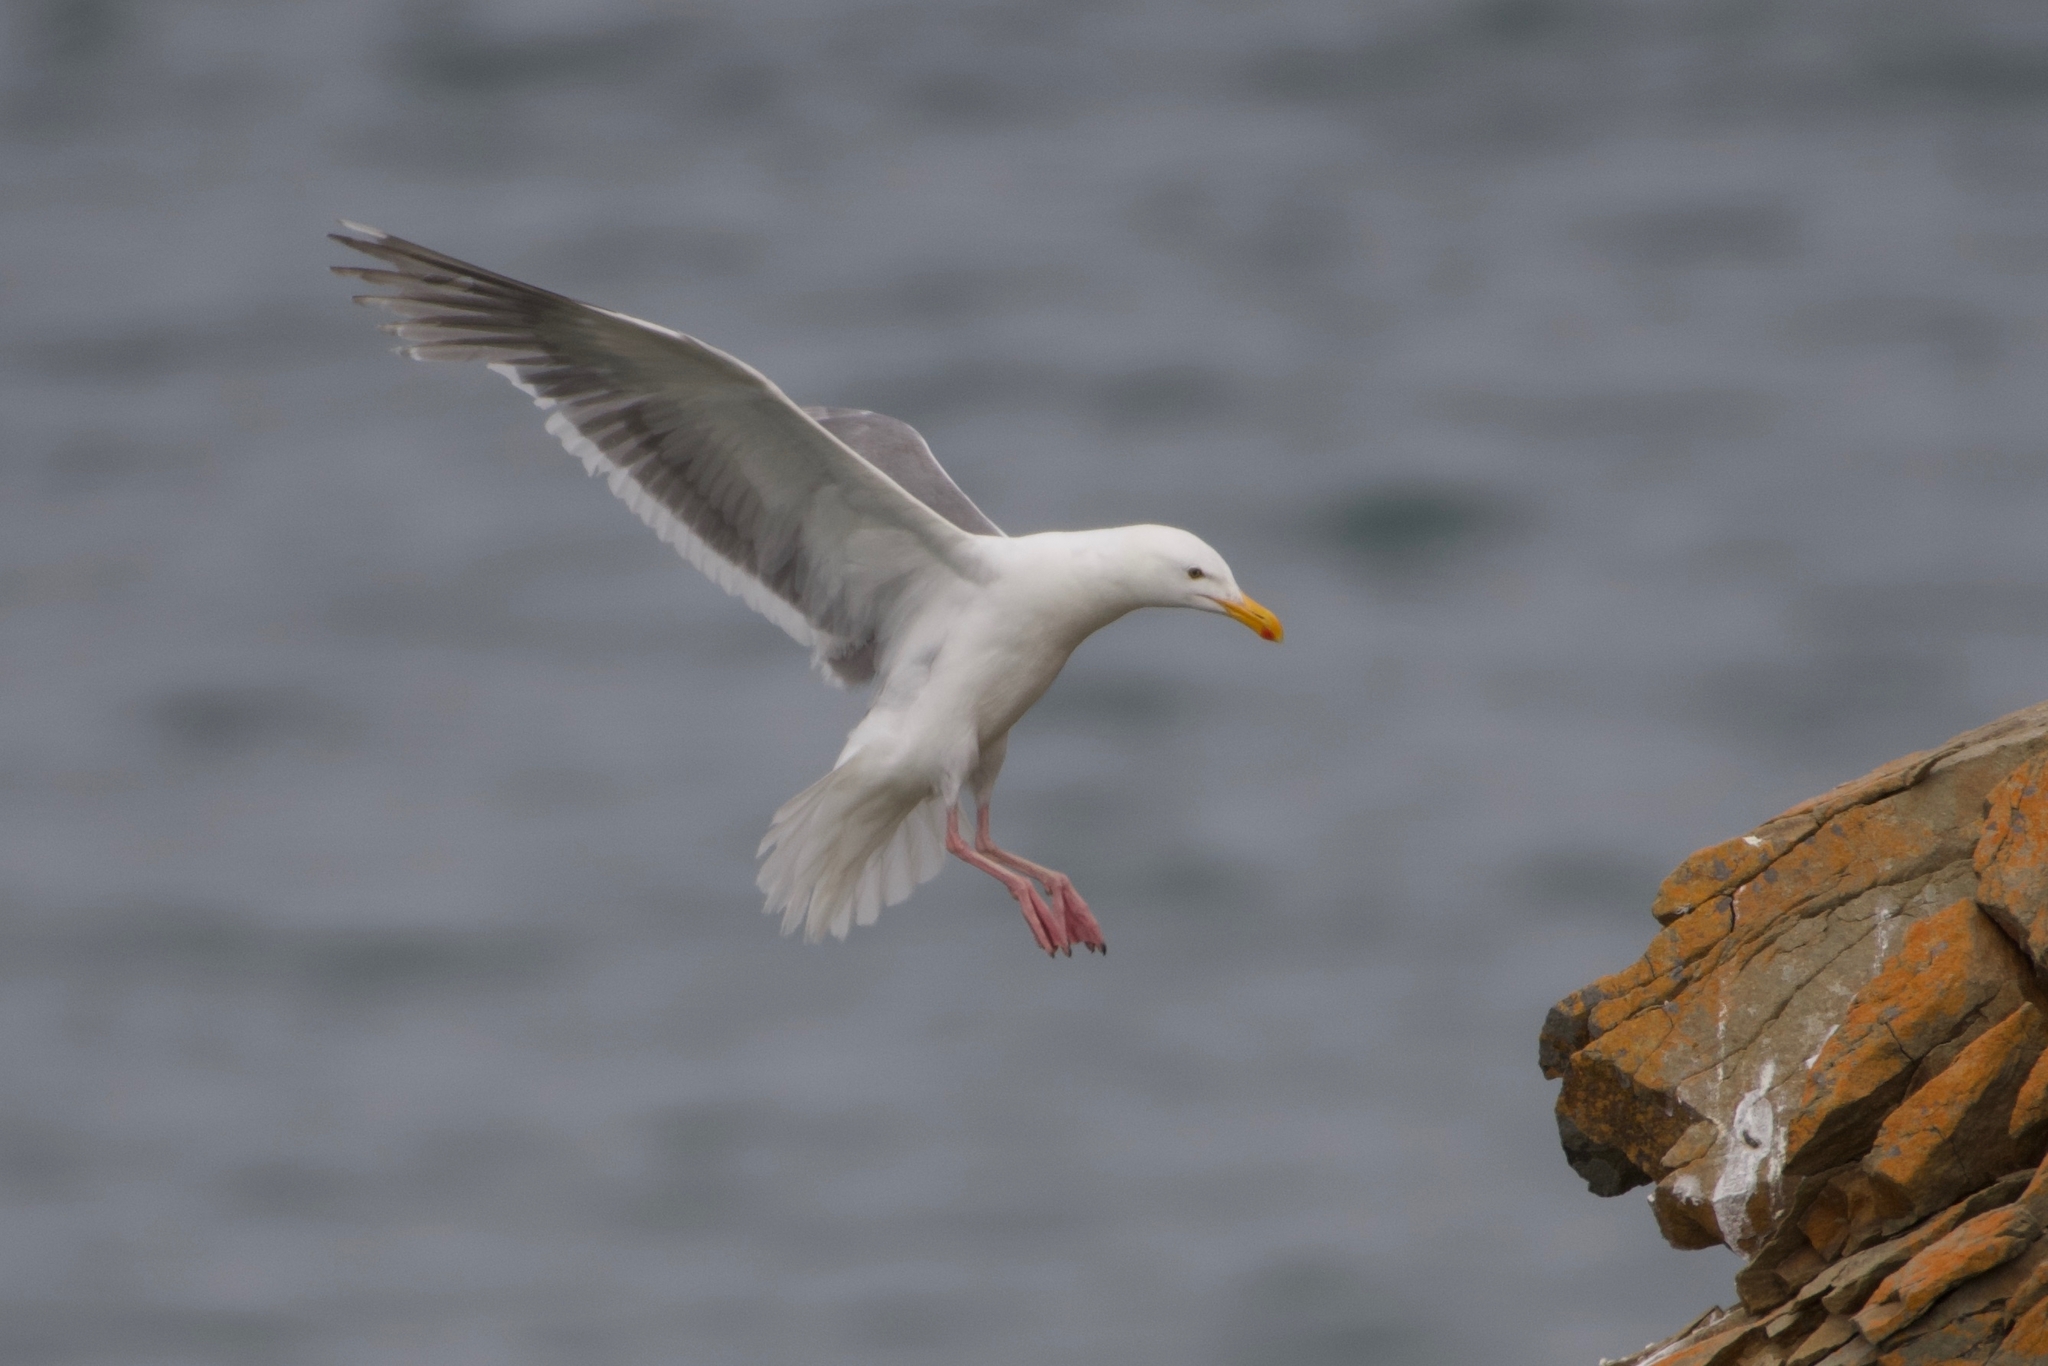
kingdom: Animalia
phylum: Chordata
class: Aves
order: Charadriiformes
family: Laridae
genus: Larus
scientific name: Larus
